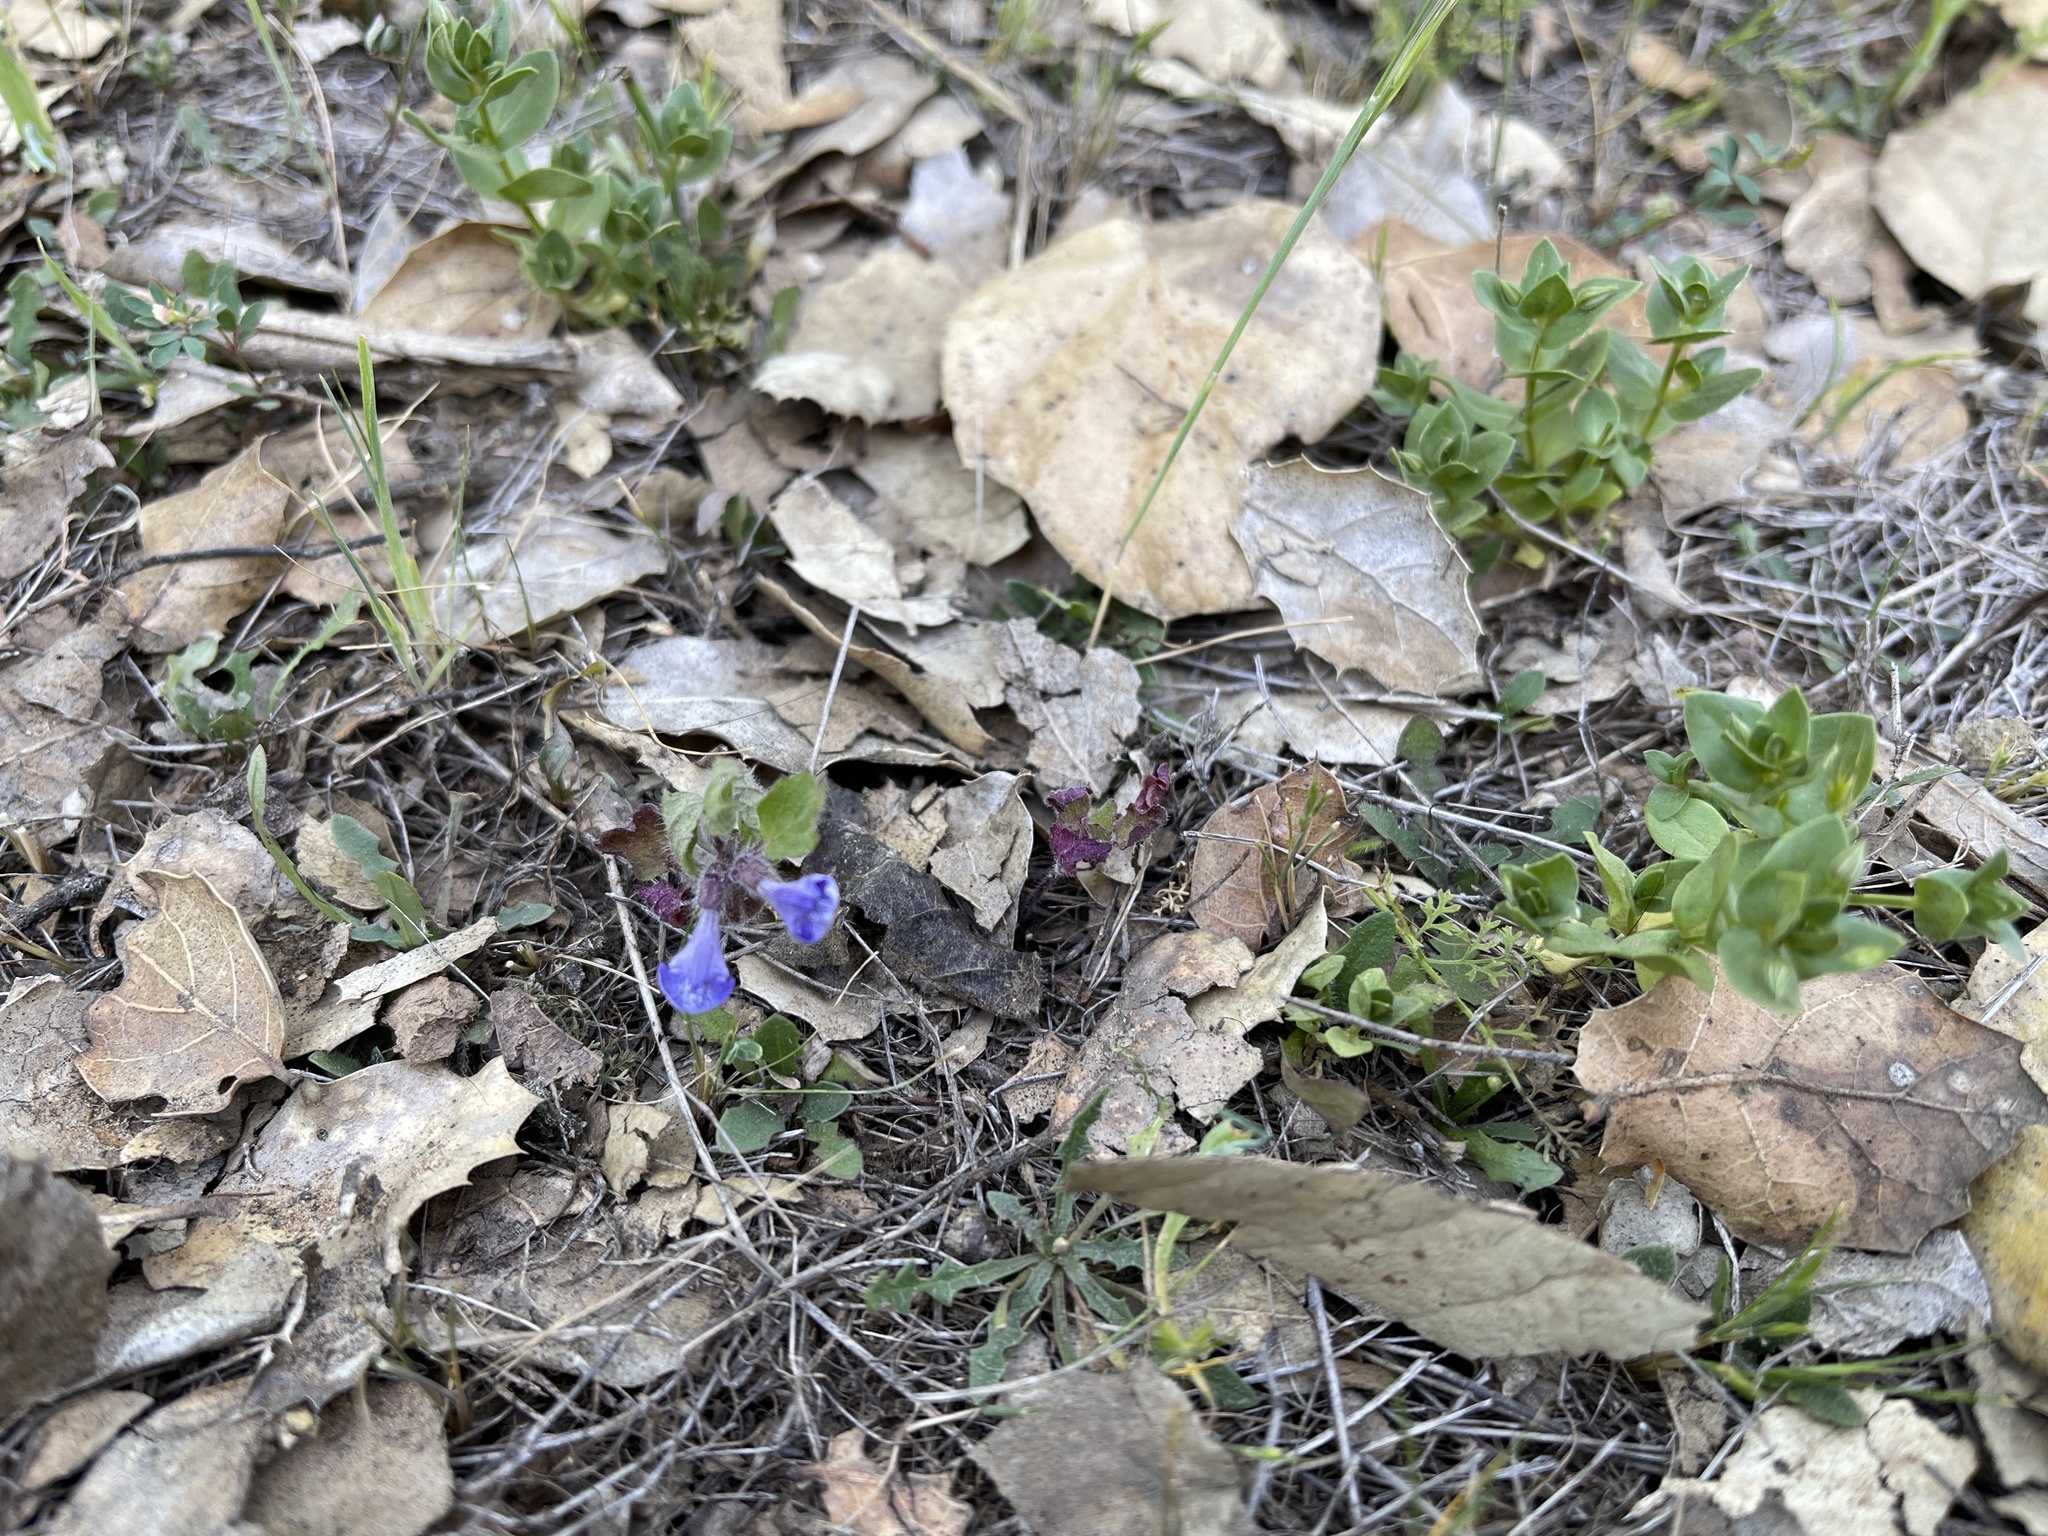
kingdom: Plantae
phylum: Tracheophyta
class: Magnoliopsida
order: Lamiales
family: Lamiaceae
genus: Scutellaria
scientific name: Scutellaria tuberosa
